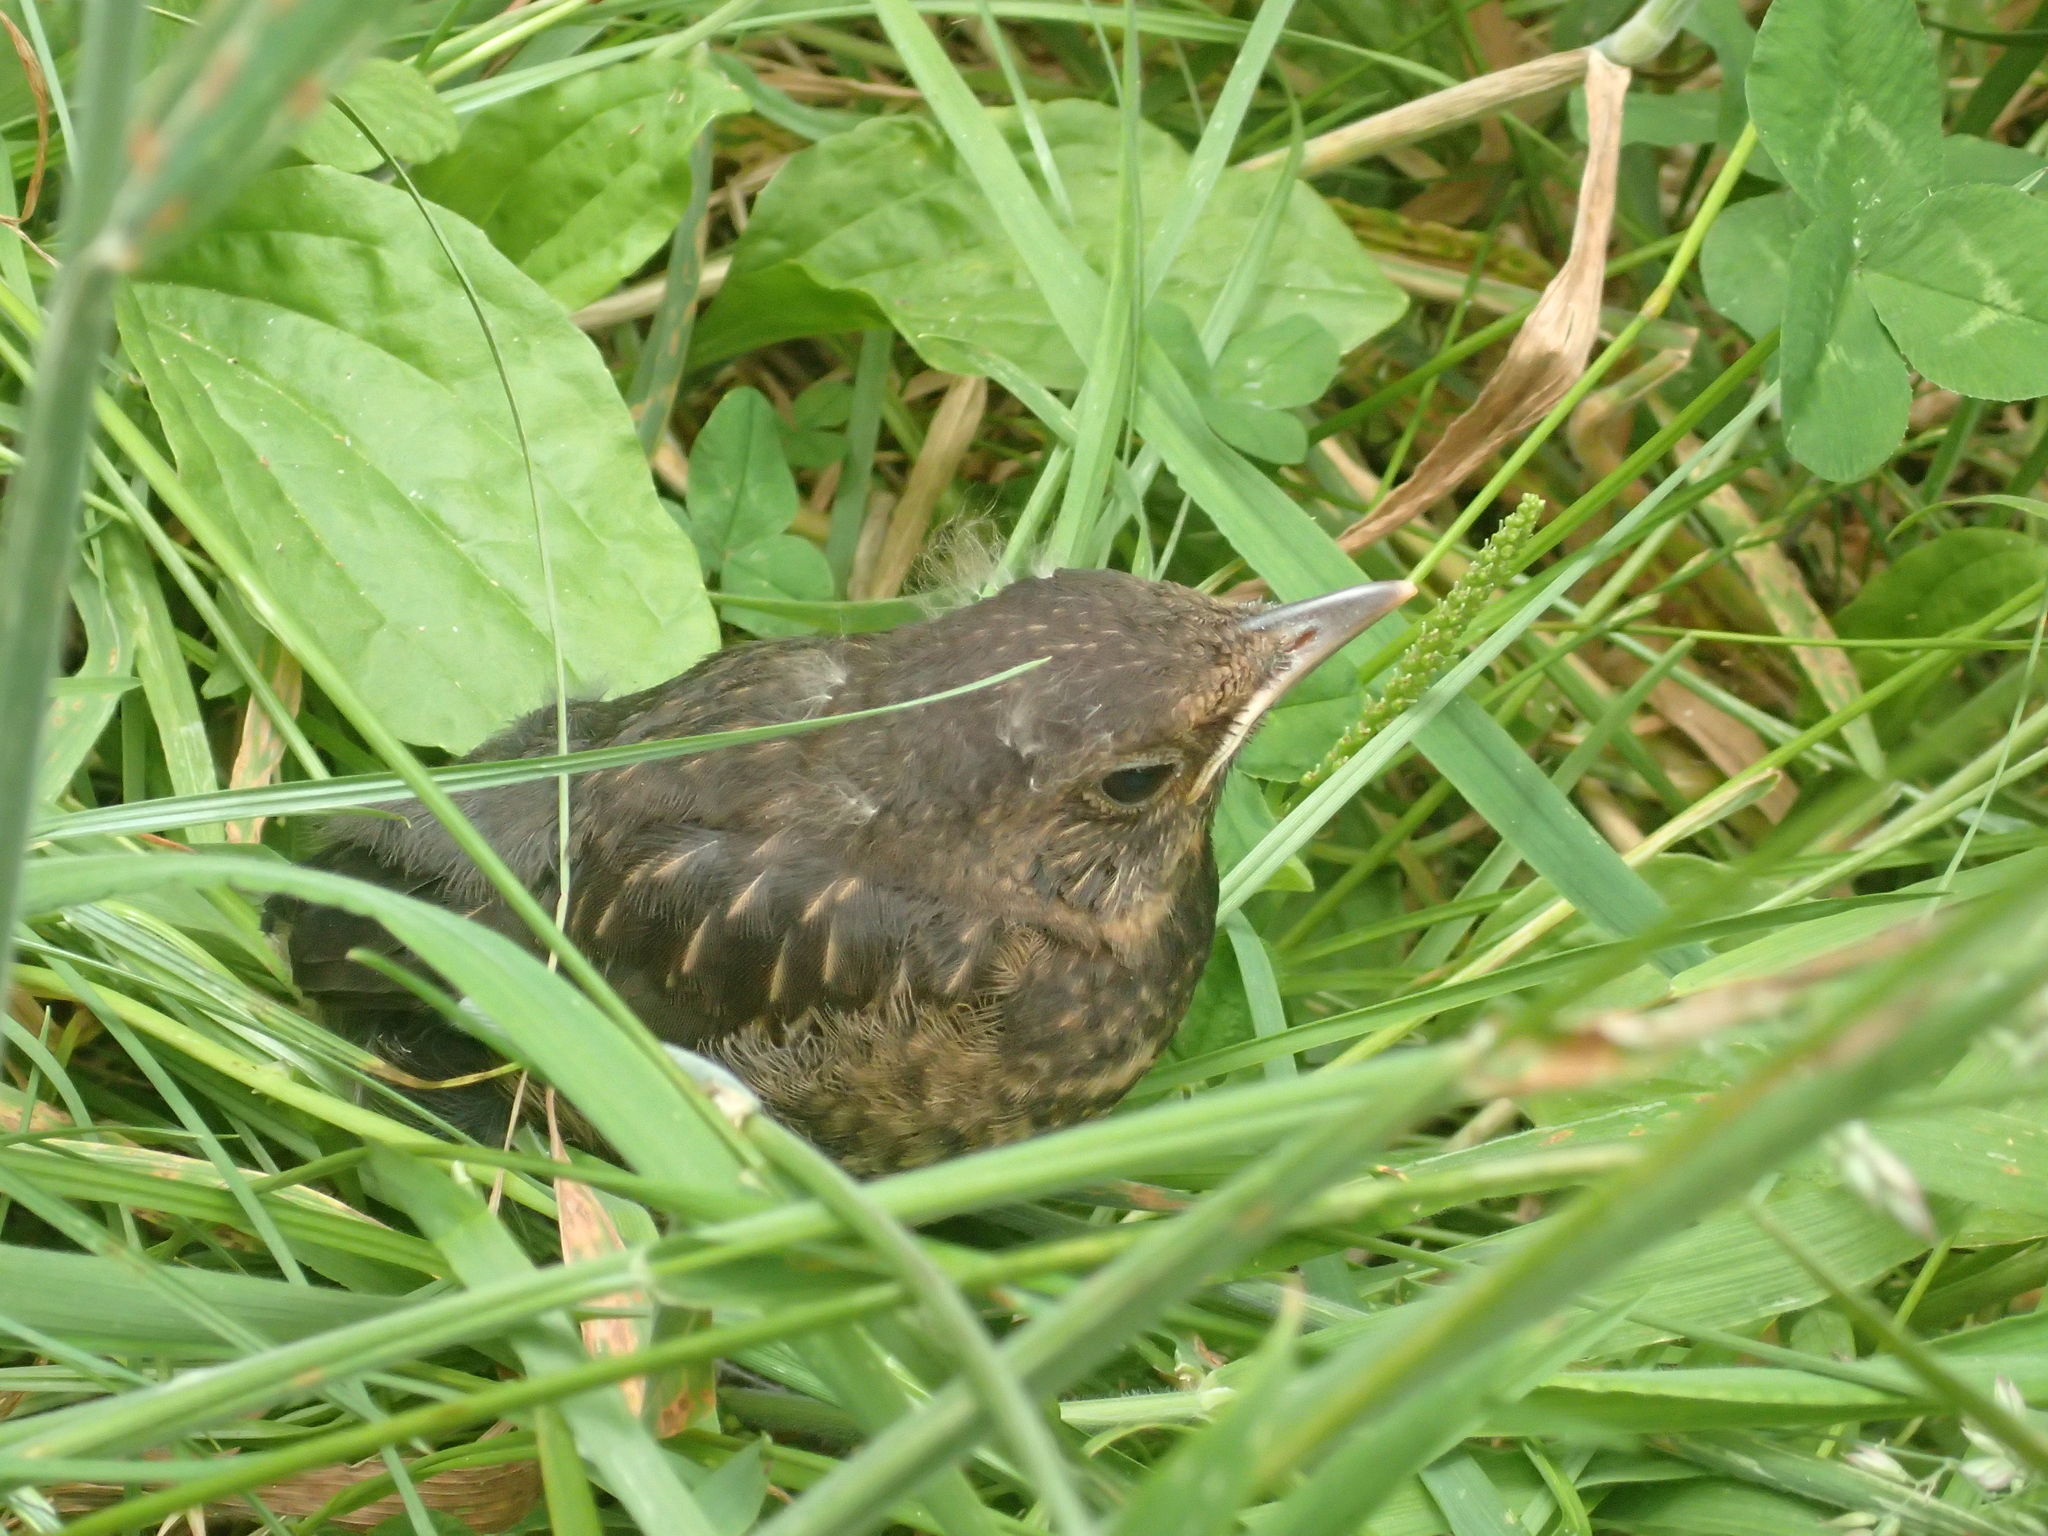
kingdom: Animalia
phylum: Chordata
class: Aves
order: Passeriformes
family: Turdidae
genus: Turdus
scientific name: Turdus merula
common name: Common blackbird
